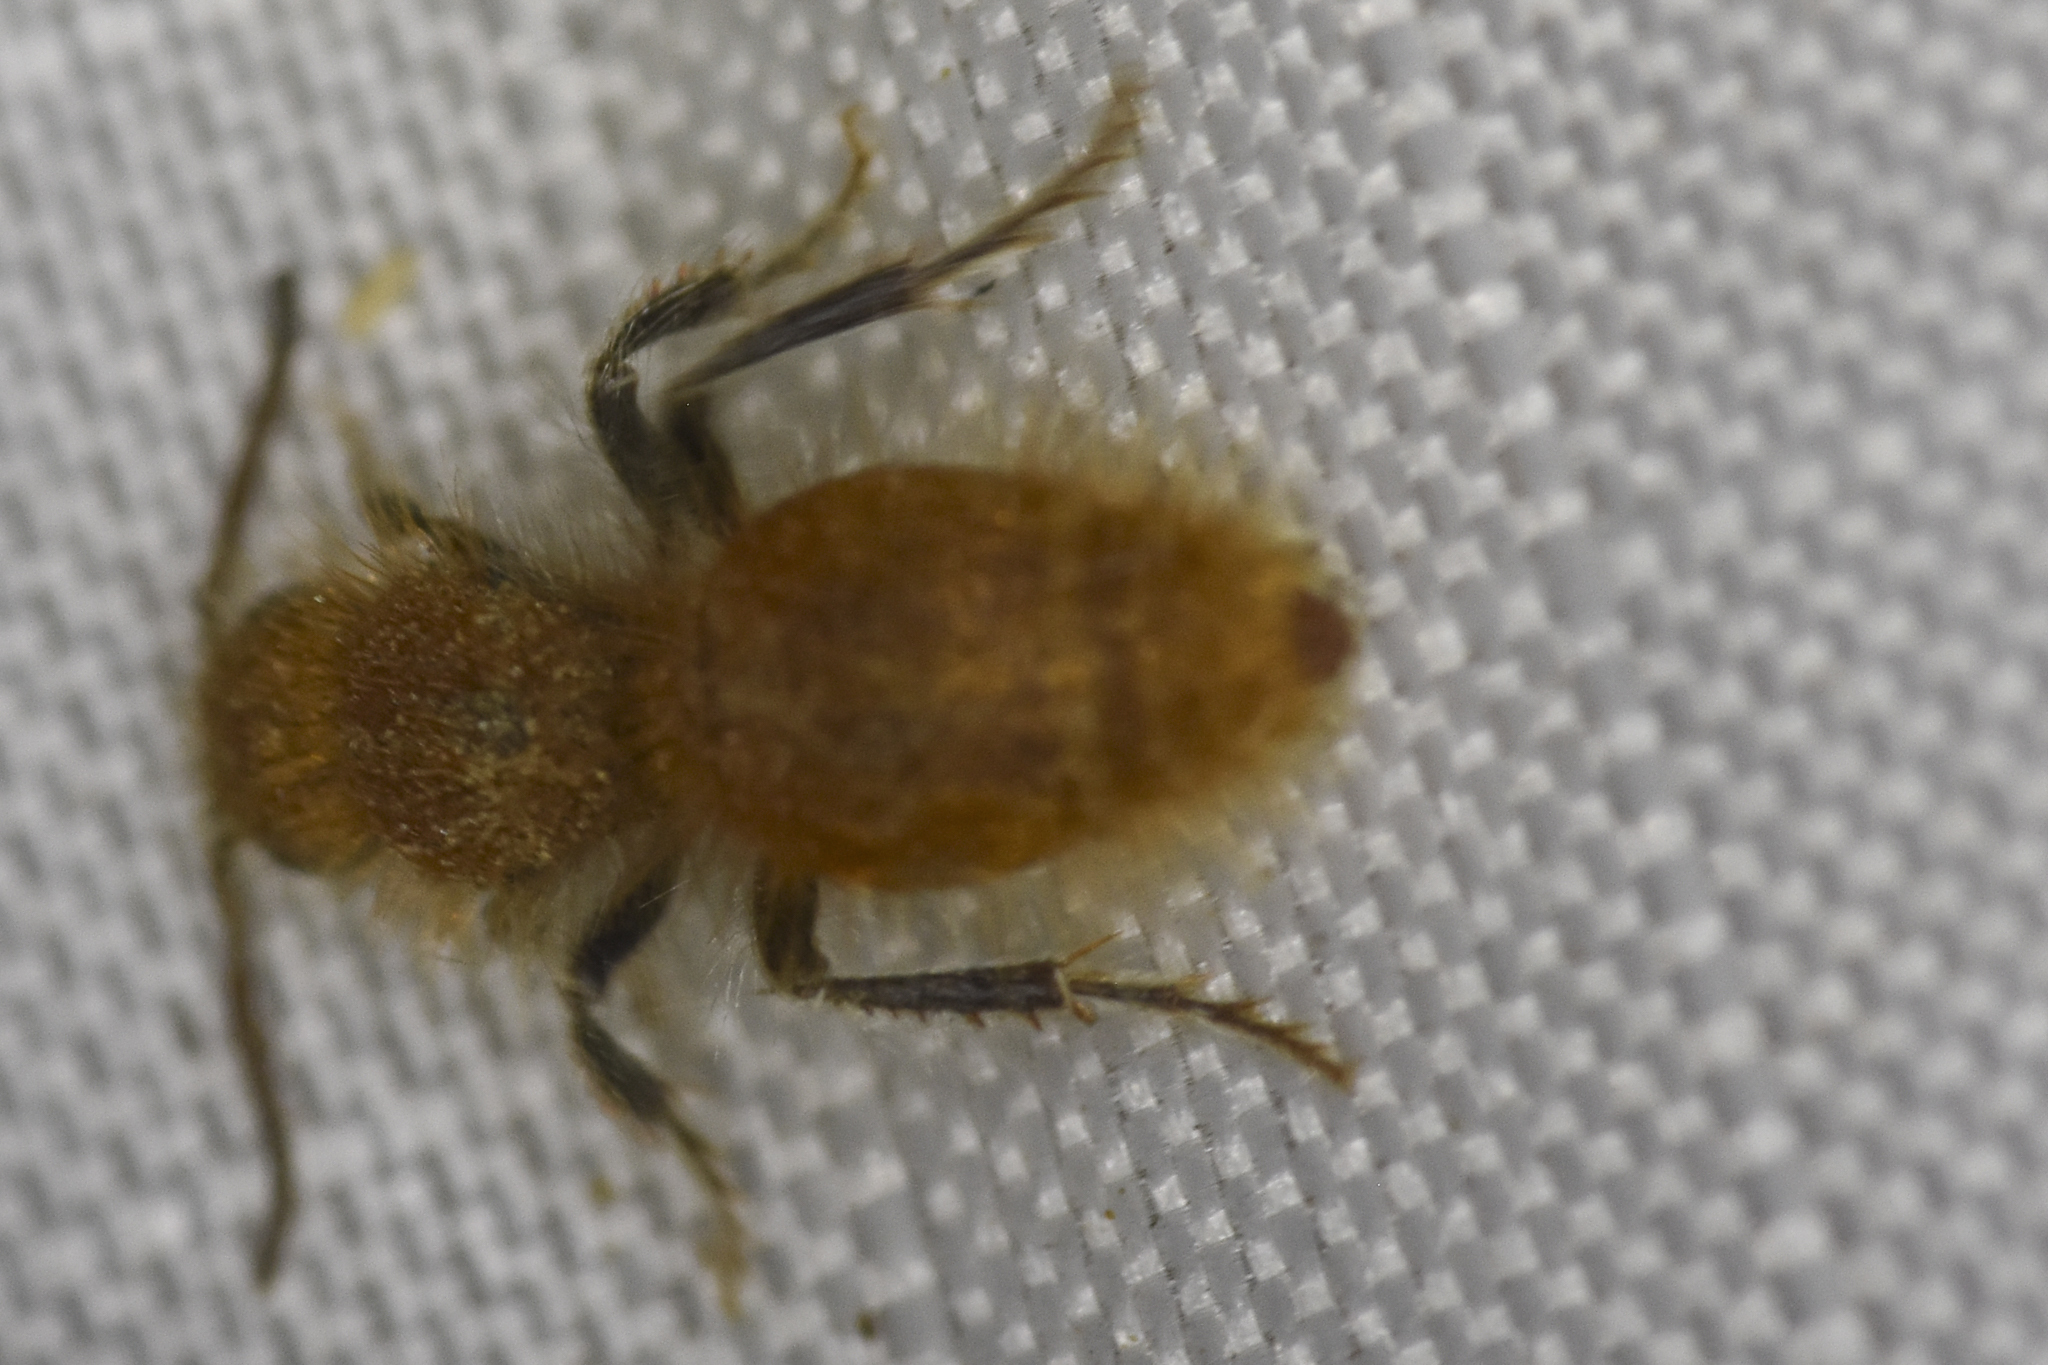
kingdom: Animalia
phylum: Arthropoda
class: Insecta
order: Hymenoptera
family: Mutillidae
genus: Sphaeropthalma
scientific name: Sphaeropthalma unicolor
